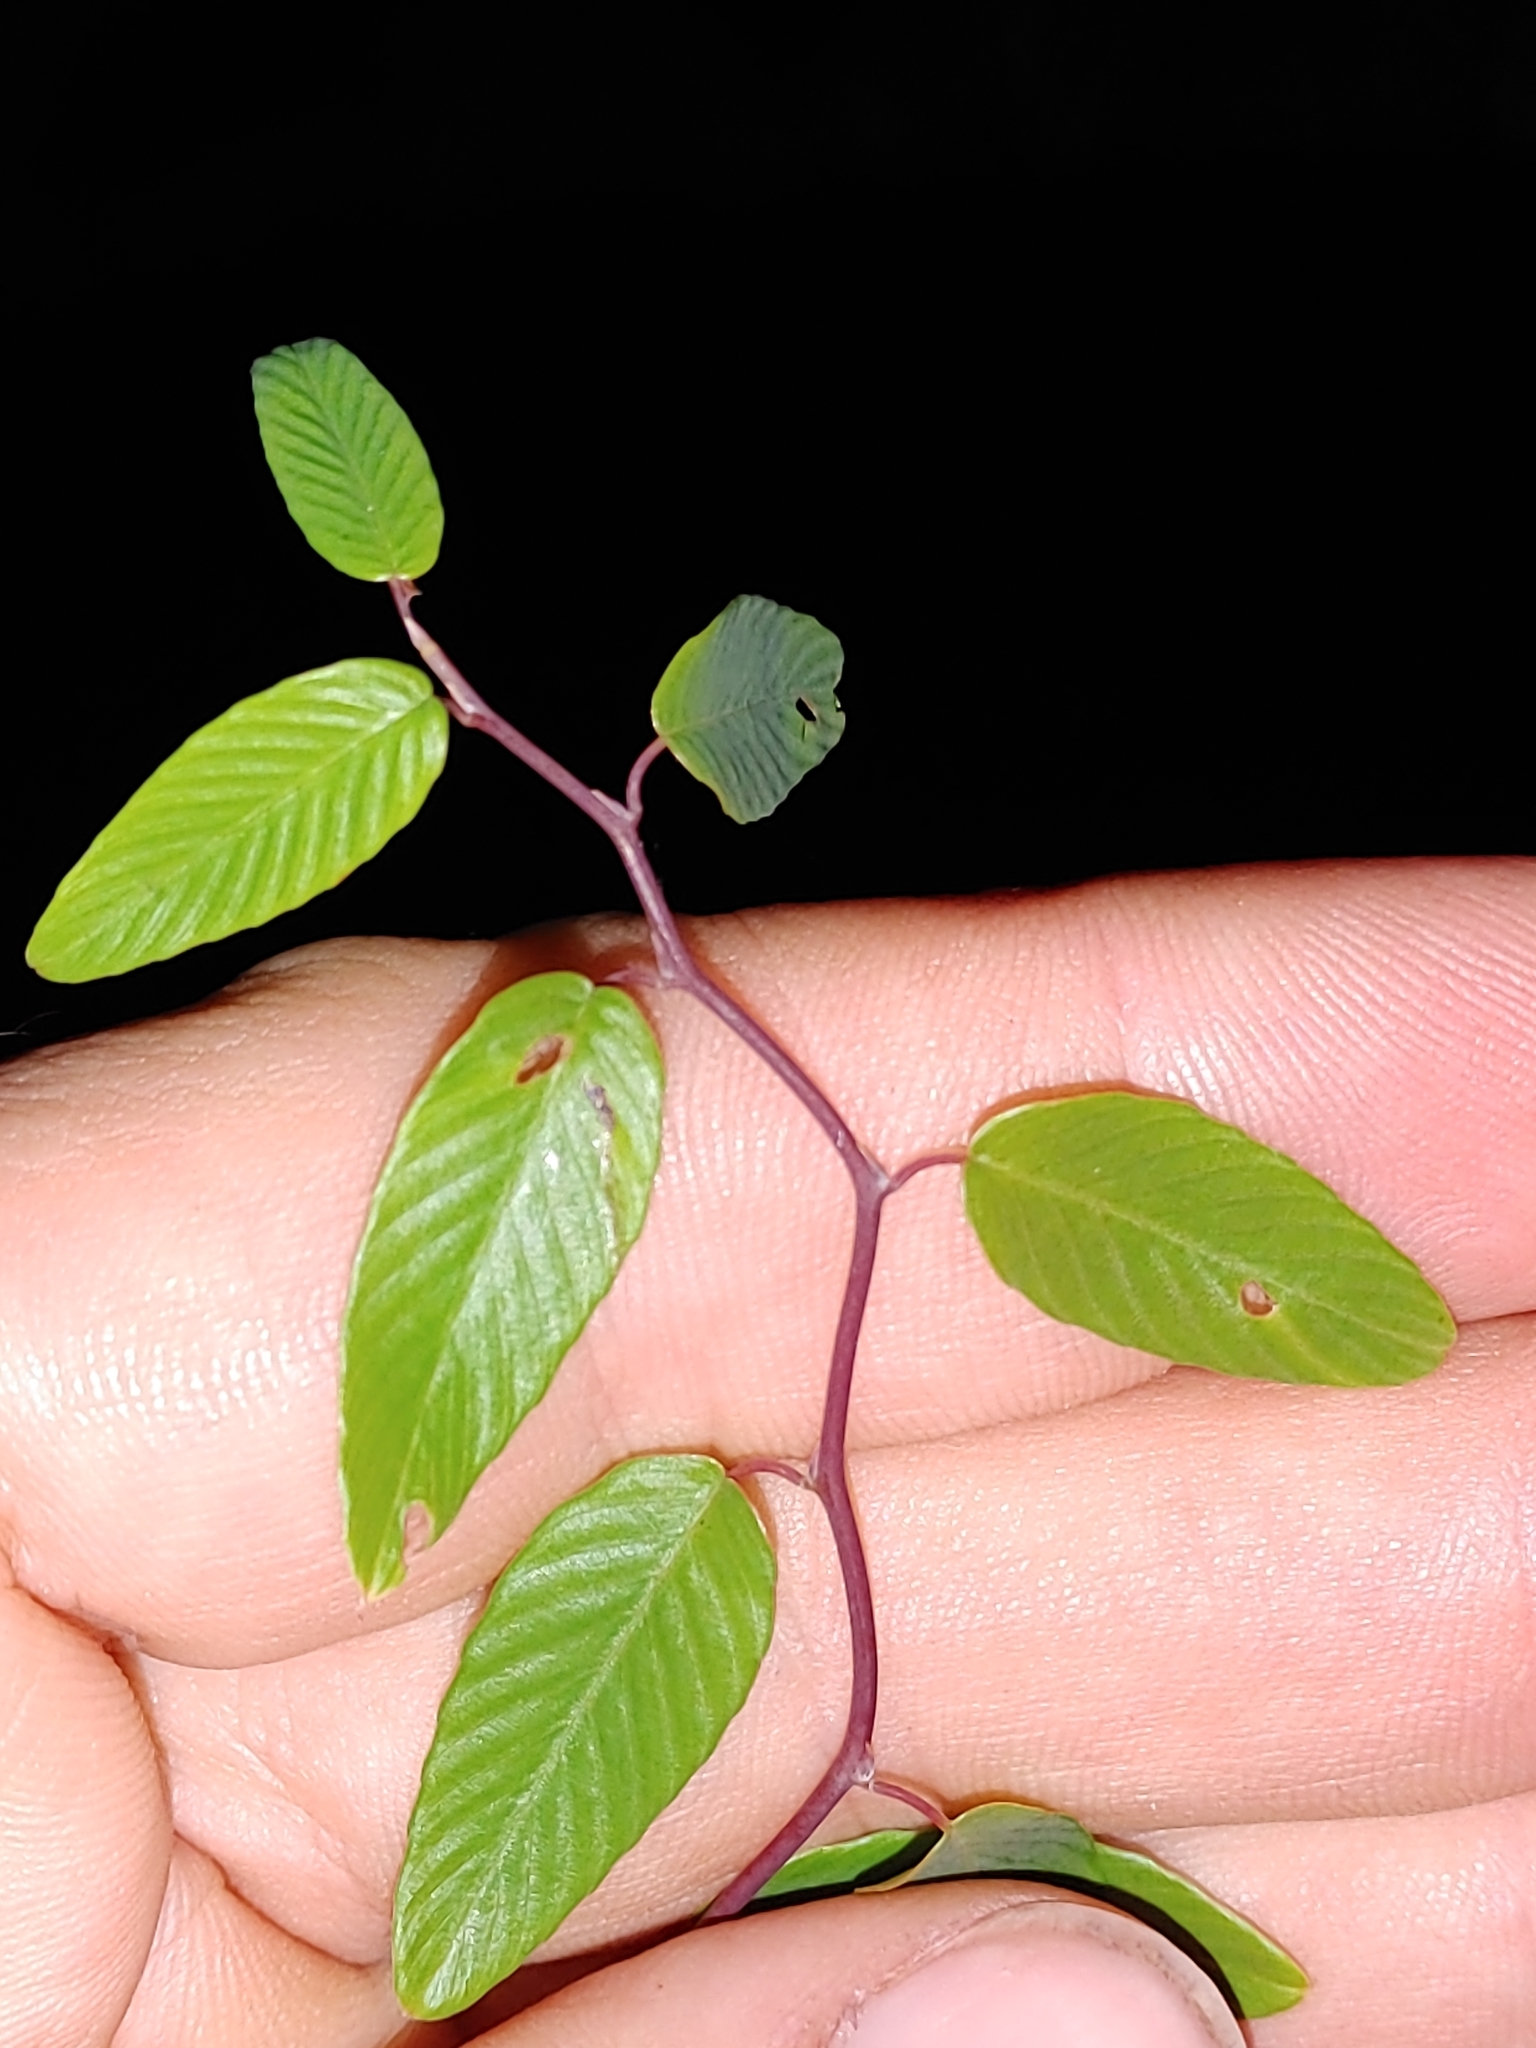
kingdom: Plantae
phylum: Tracheophyta
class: Magnoliopsida
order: Rosales
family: Rhamnaceae
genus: Berchemia
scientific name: Berchemia scandens
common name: Supplejack
